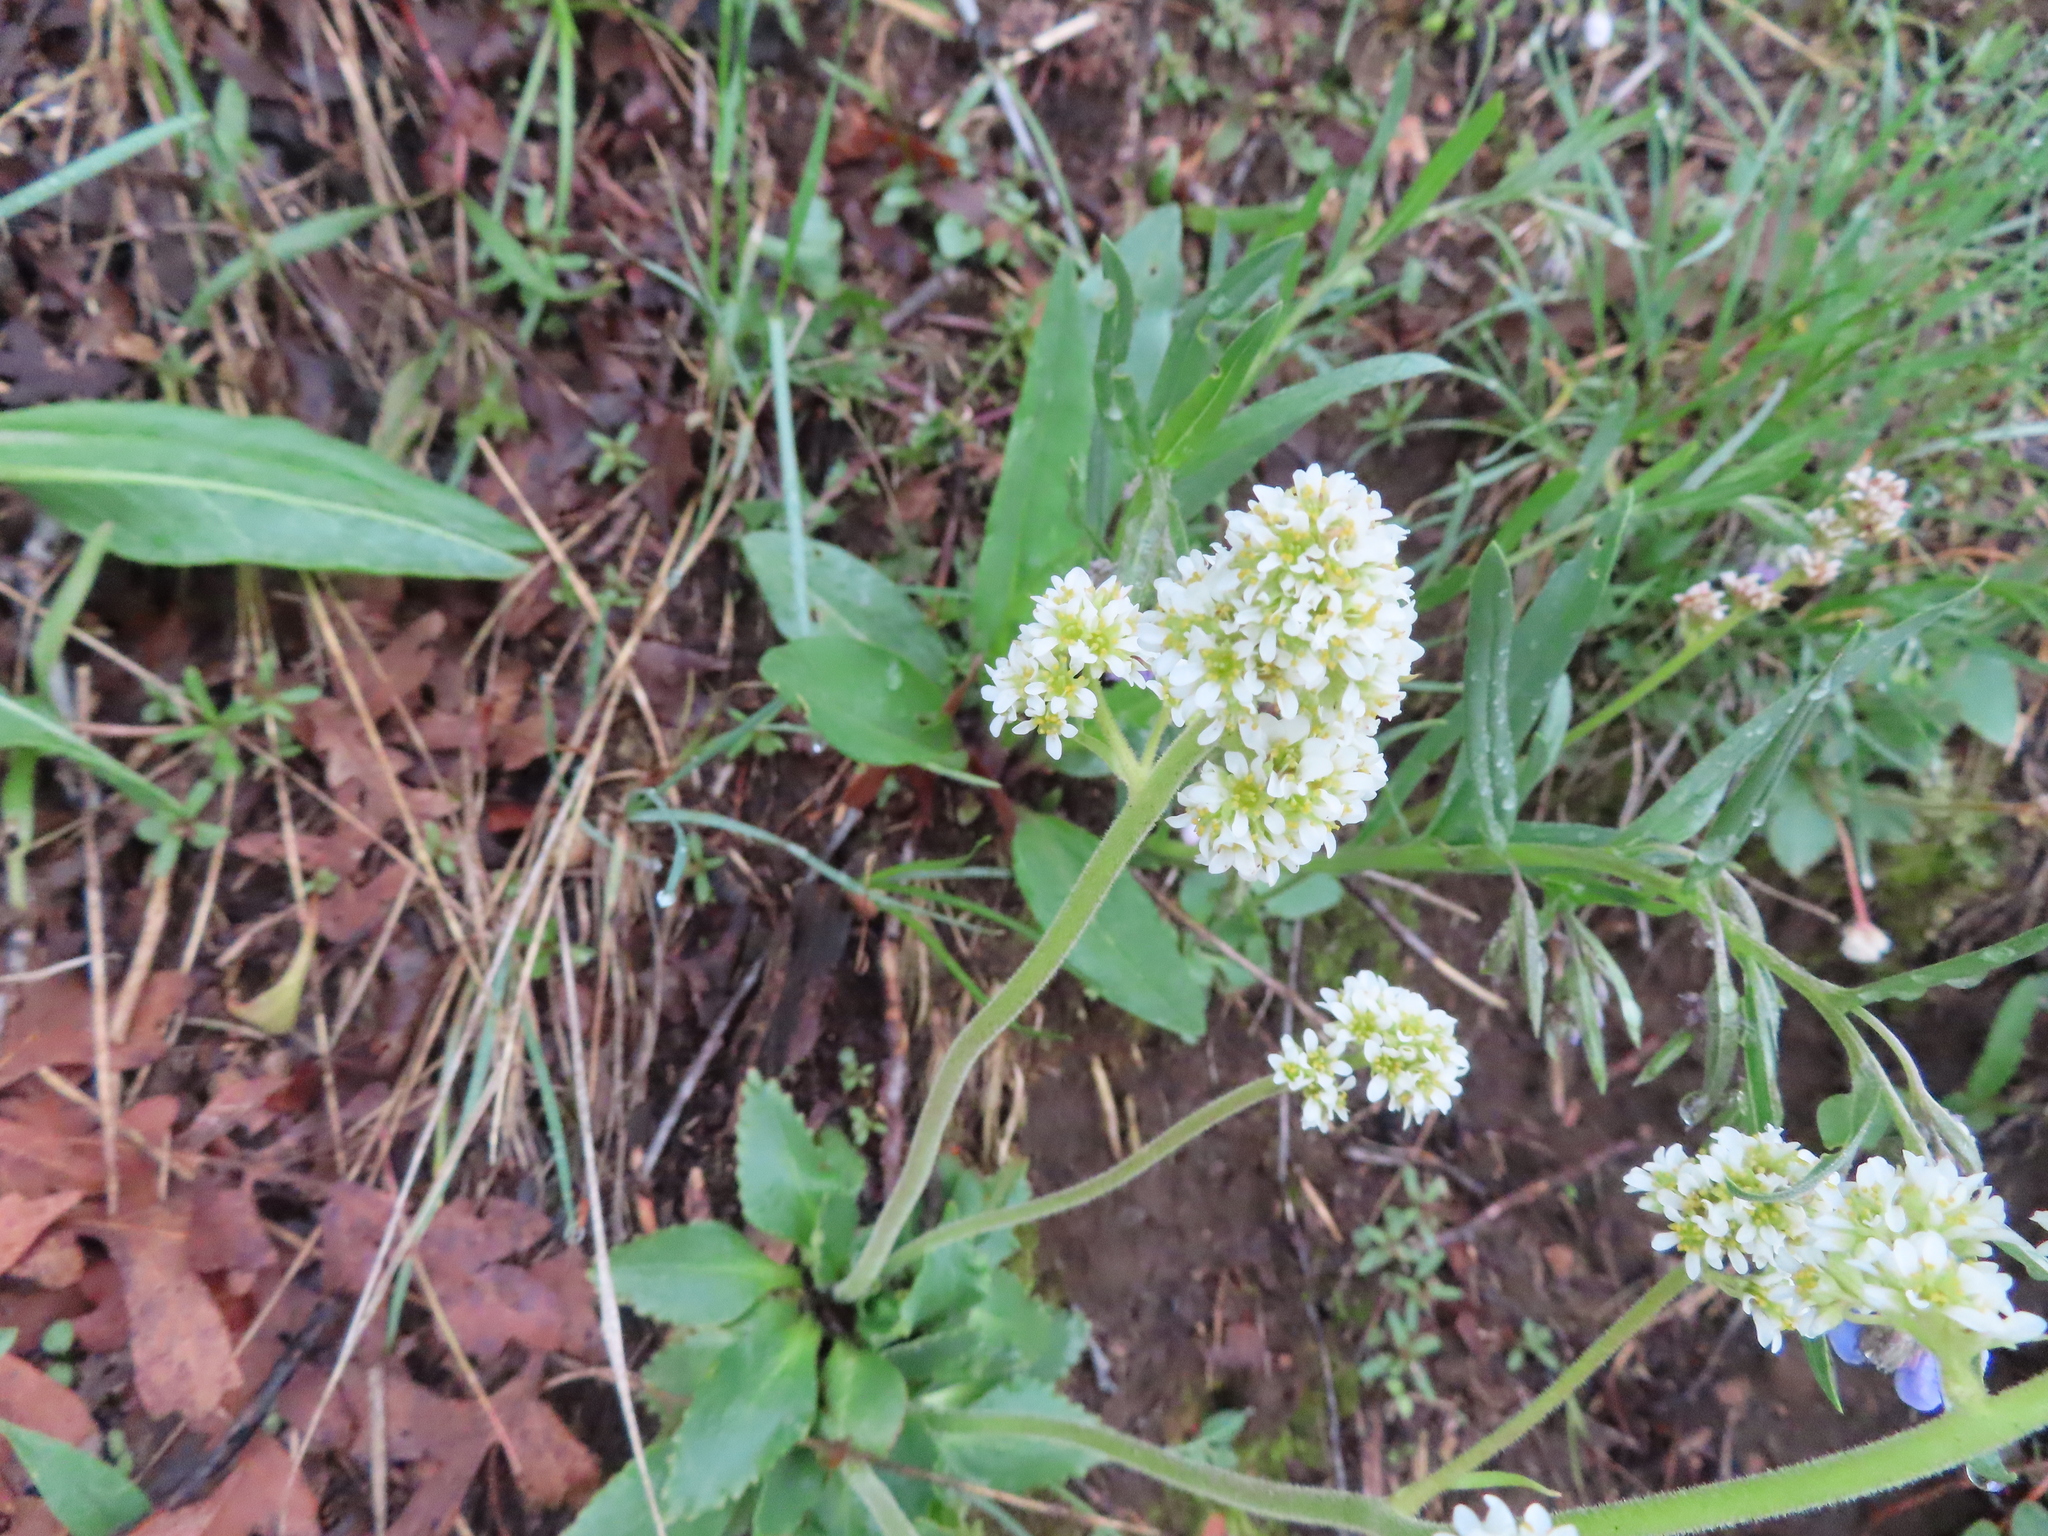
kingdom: Plantae
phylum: Tracheophyta
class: Magnoliopsida
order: Saxifragales
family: Saxifragaceae
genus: Micranthes
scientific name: Micranthes rhomboidea
